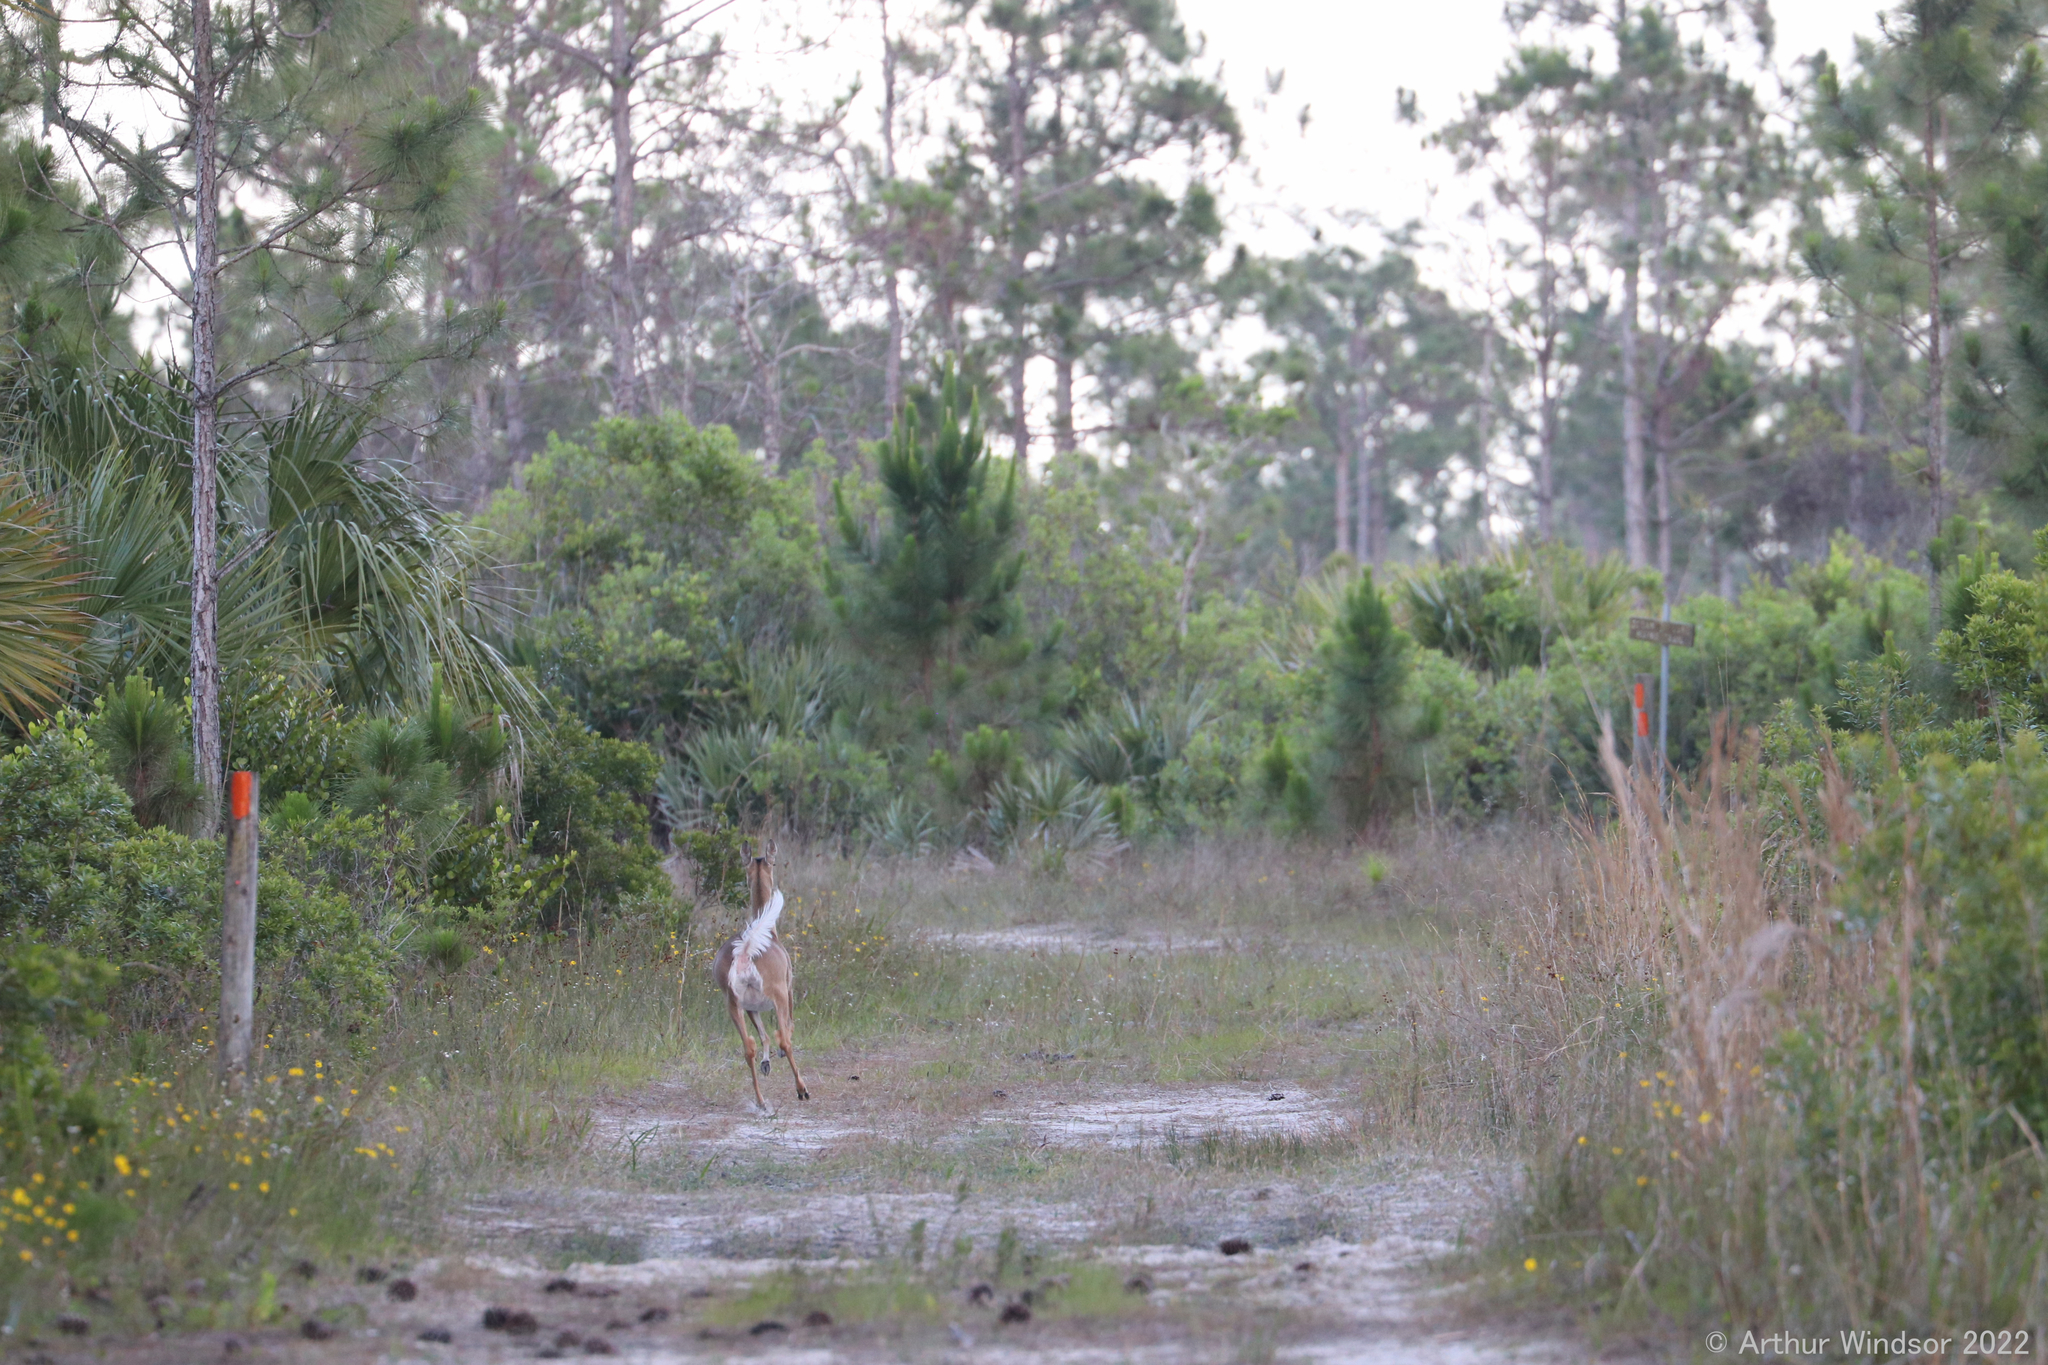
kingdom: Animalia
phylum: Chordata
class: Mammalia
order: Artiodactyla
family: Cervidae
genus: Odocoileus
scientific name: Odocoileus virginianus
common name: White-tailed deer
